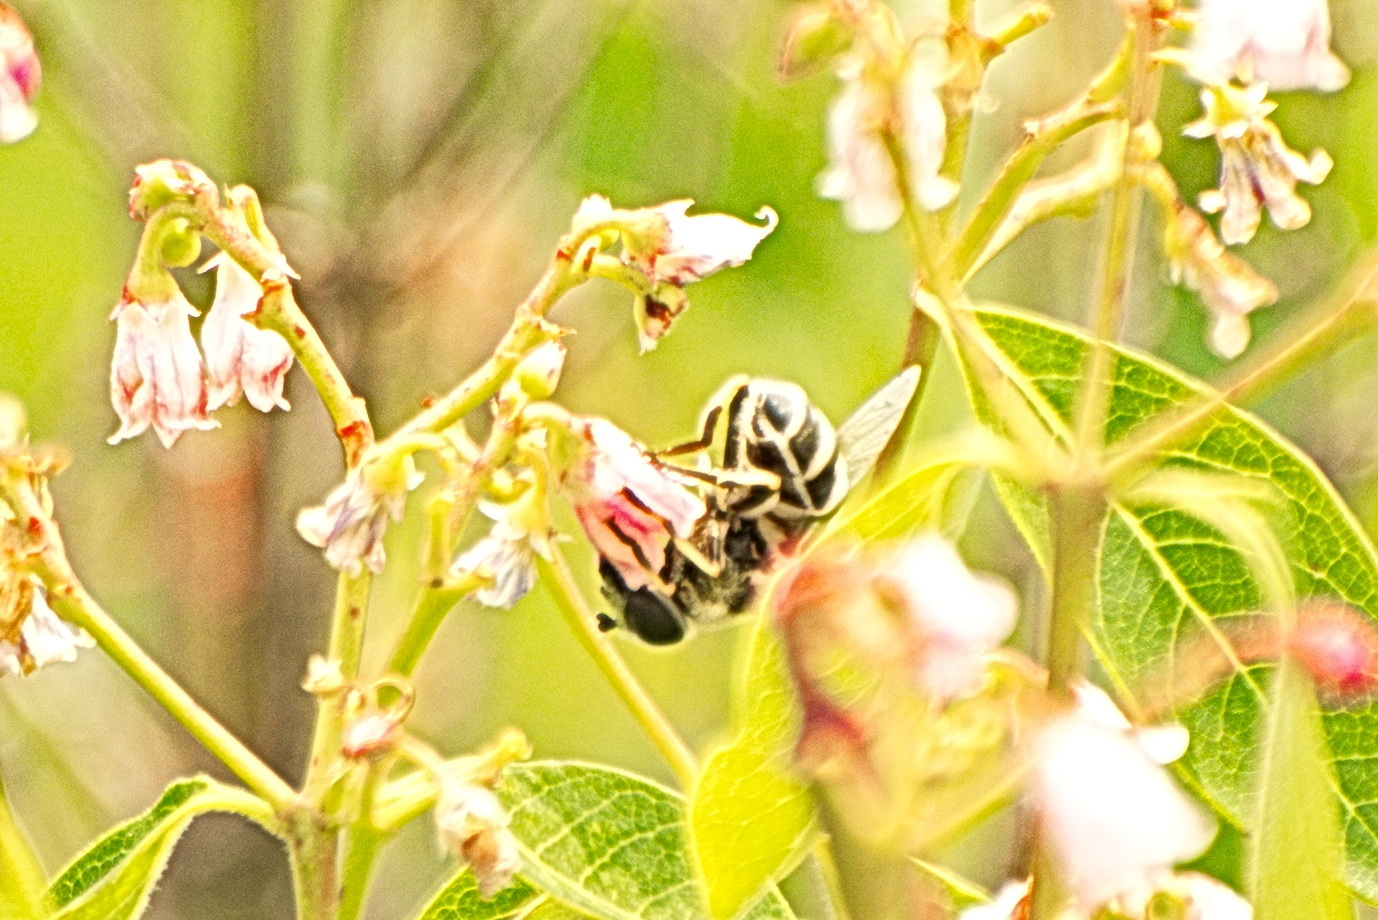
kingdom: Animalia
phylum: Arthropoda
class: Insecta
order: Diptera
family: Syrphidae
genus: Eristalis
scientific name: Eristalis
